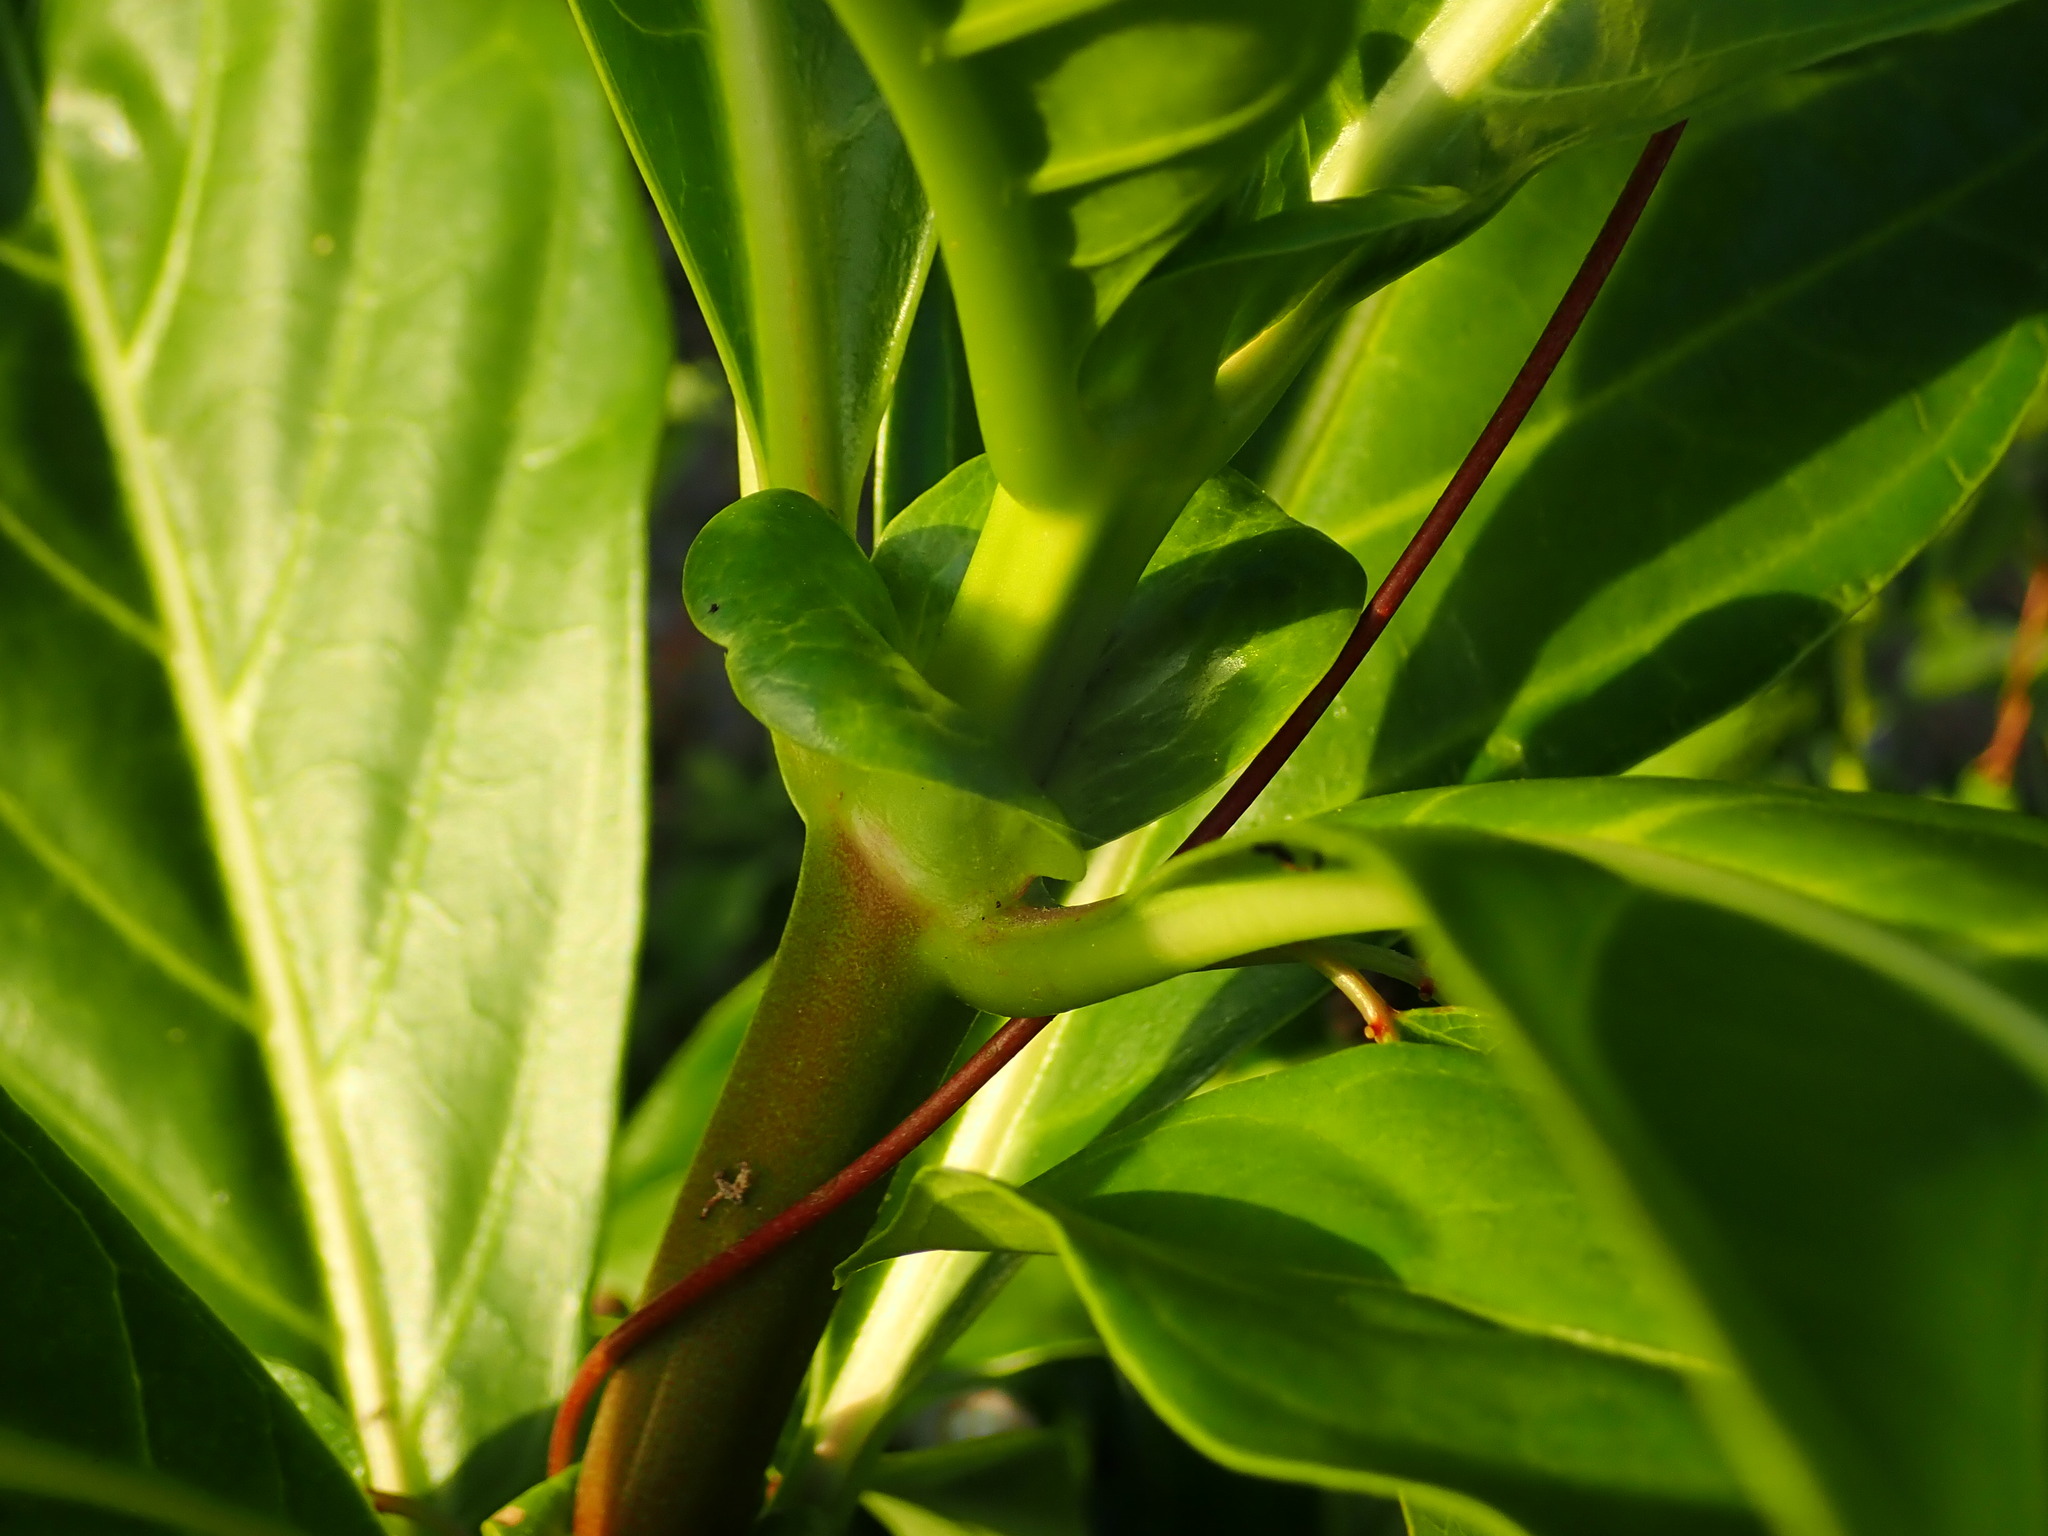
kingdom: Plantae
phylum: Tracheophyta
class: Magnoliopsida
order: Gentianales
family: Rubiaceae
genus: Morinda
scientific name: Morinda citrifolia
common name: Indian-mulberry
